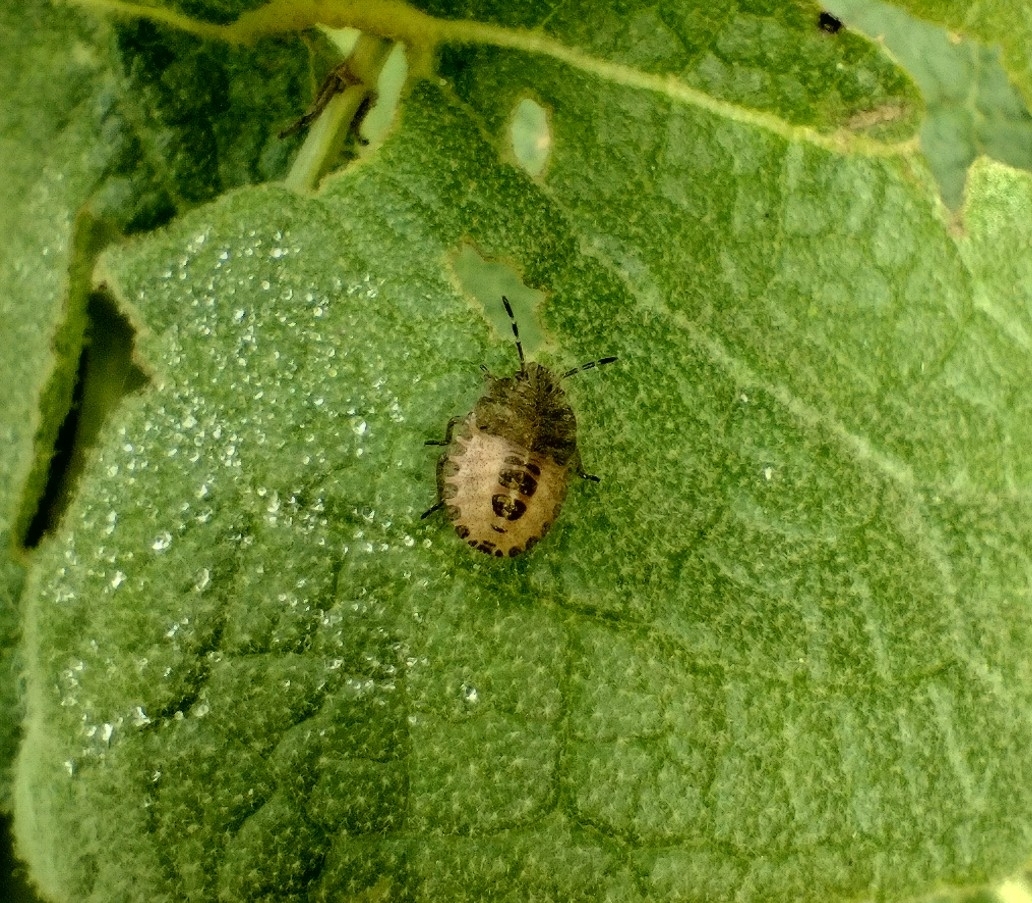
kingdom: Animalia
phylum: Arthropoda
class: Insecta
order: Hemiptera
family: Pentatomidae
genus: Dolycoris
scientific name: Dolycoris baccarum
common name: Sloe bug
